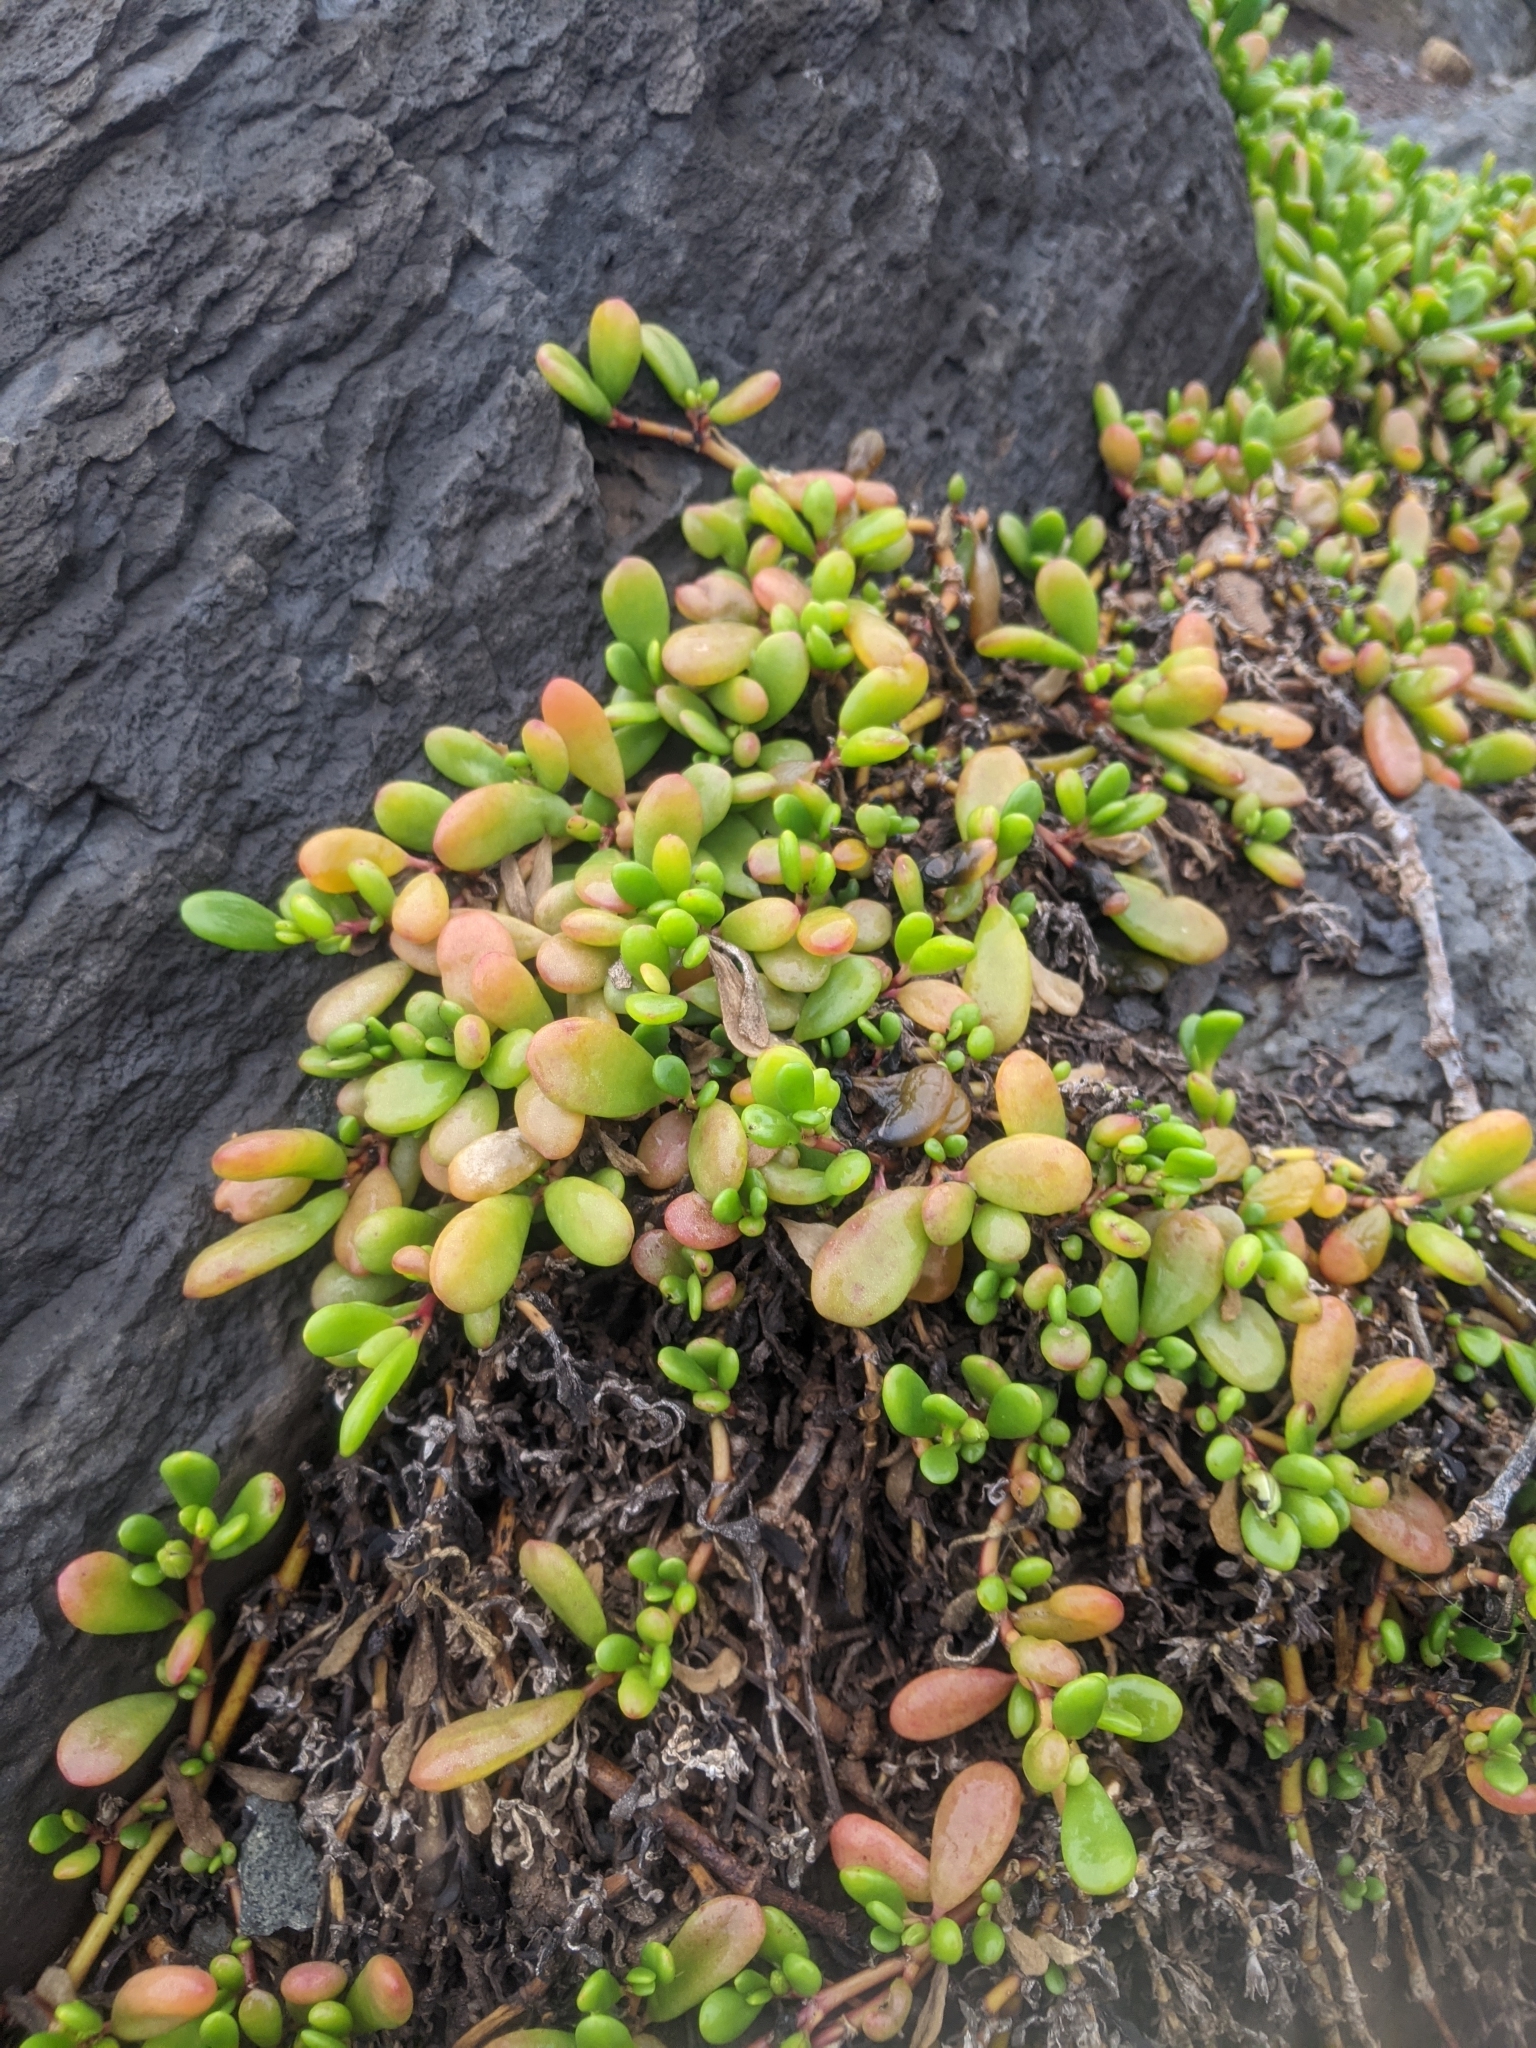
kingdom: Plantae
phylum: Tracheophyta
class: Magnoliopsida
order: Caryophyllales
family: Aizoaceae
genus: Sesuvium
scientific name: Sesuvium portulacastrum
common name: Sea-purslane
